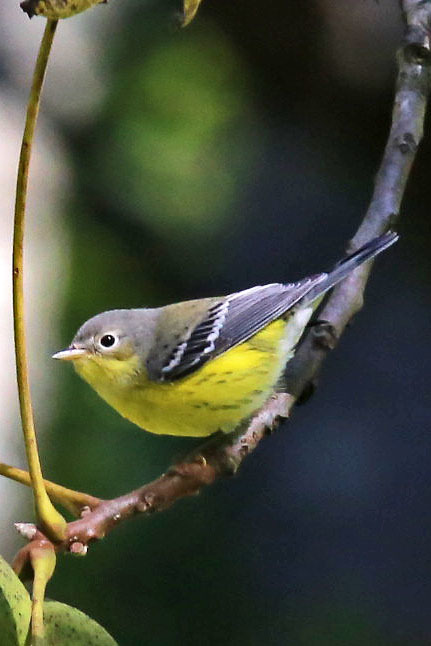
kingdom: Animalia
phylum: Chordata
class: Aves
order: Passeriformes
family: Parulidae
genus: Setophaga
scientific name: Setophaga magnolia
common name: Magnolia warbler
